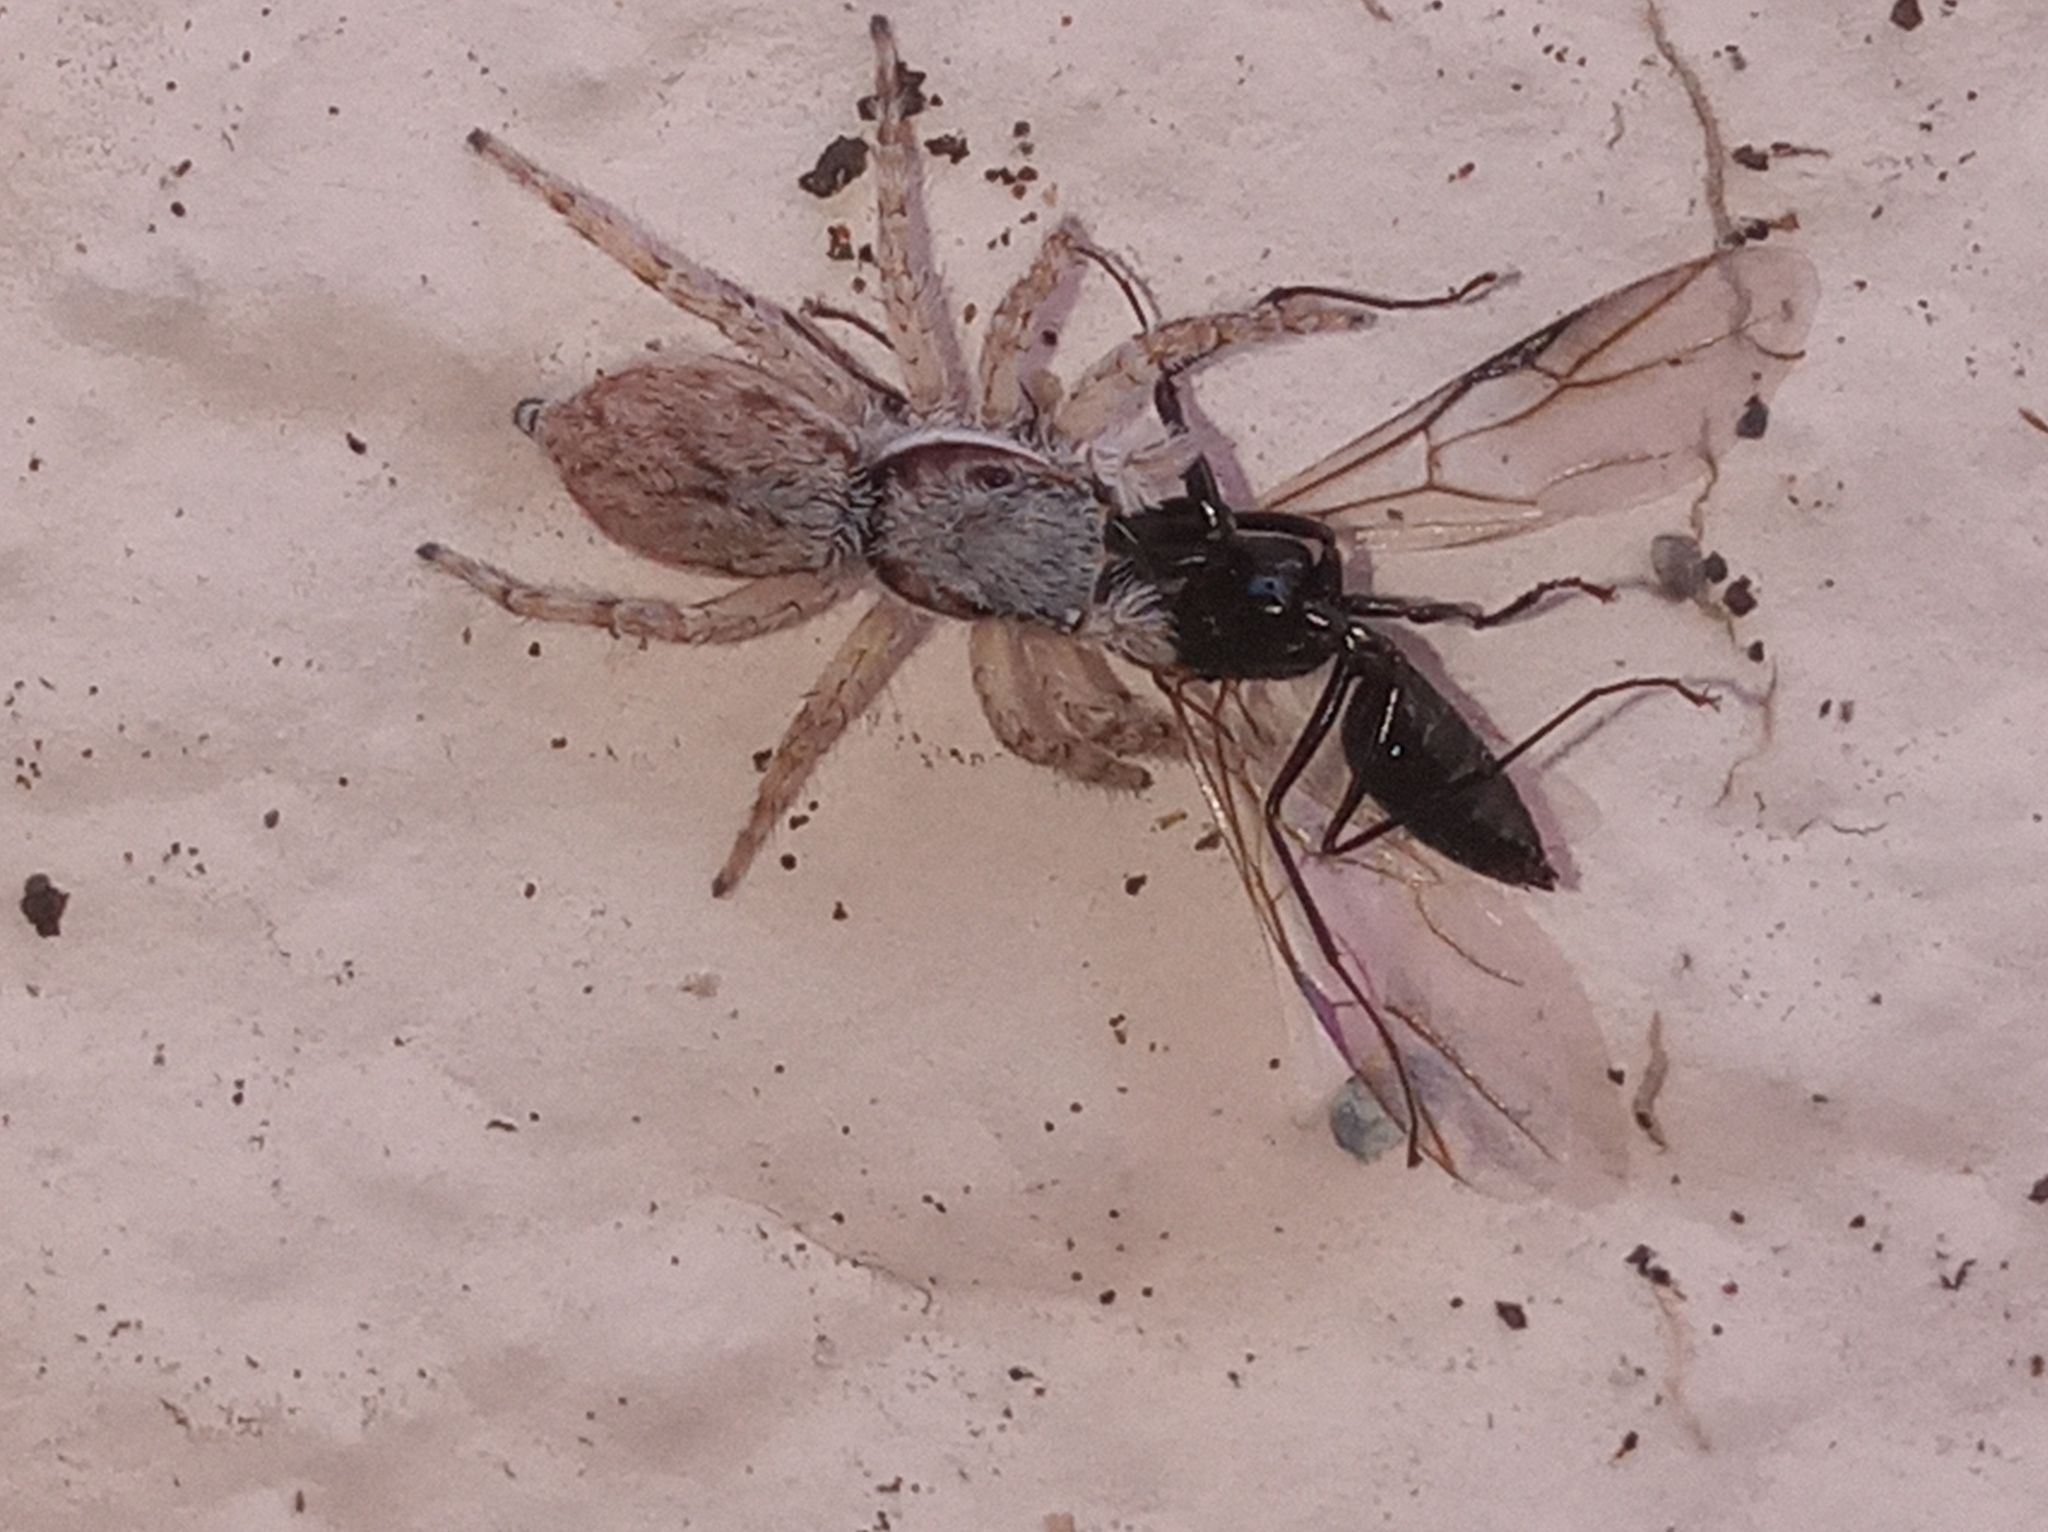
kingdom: Animalia
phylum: Arthropoda
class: Arachnida
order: Araneae
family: Salticidae
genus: Menemerus
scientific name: Menemerus bivittatus
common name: Gray wall jumper
